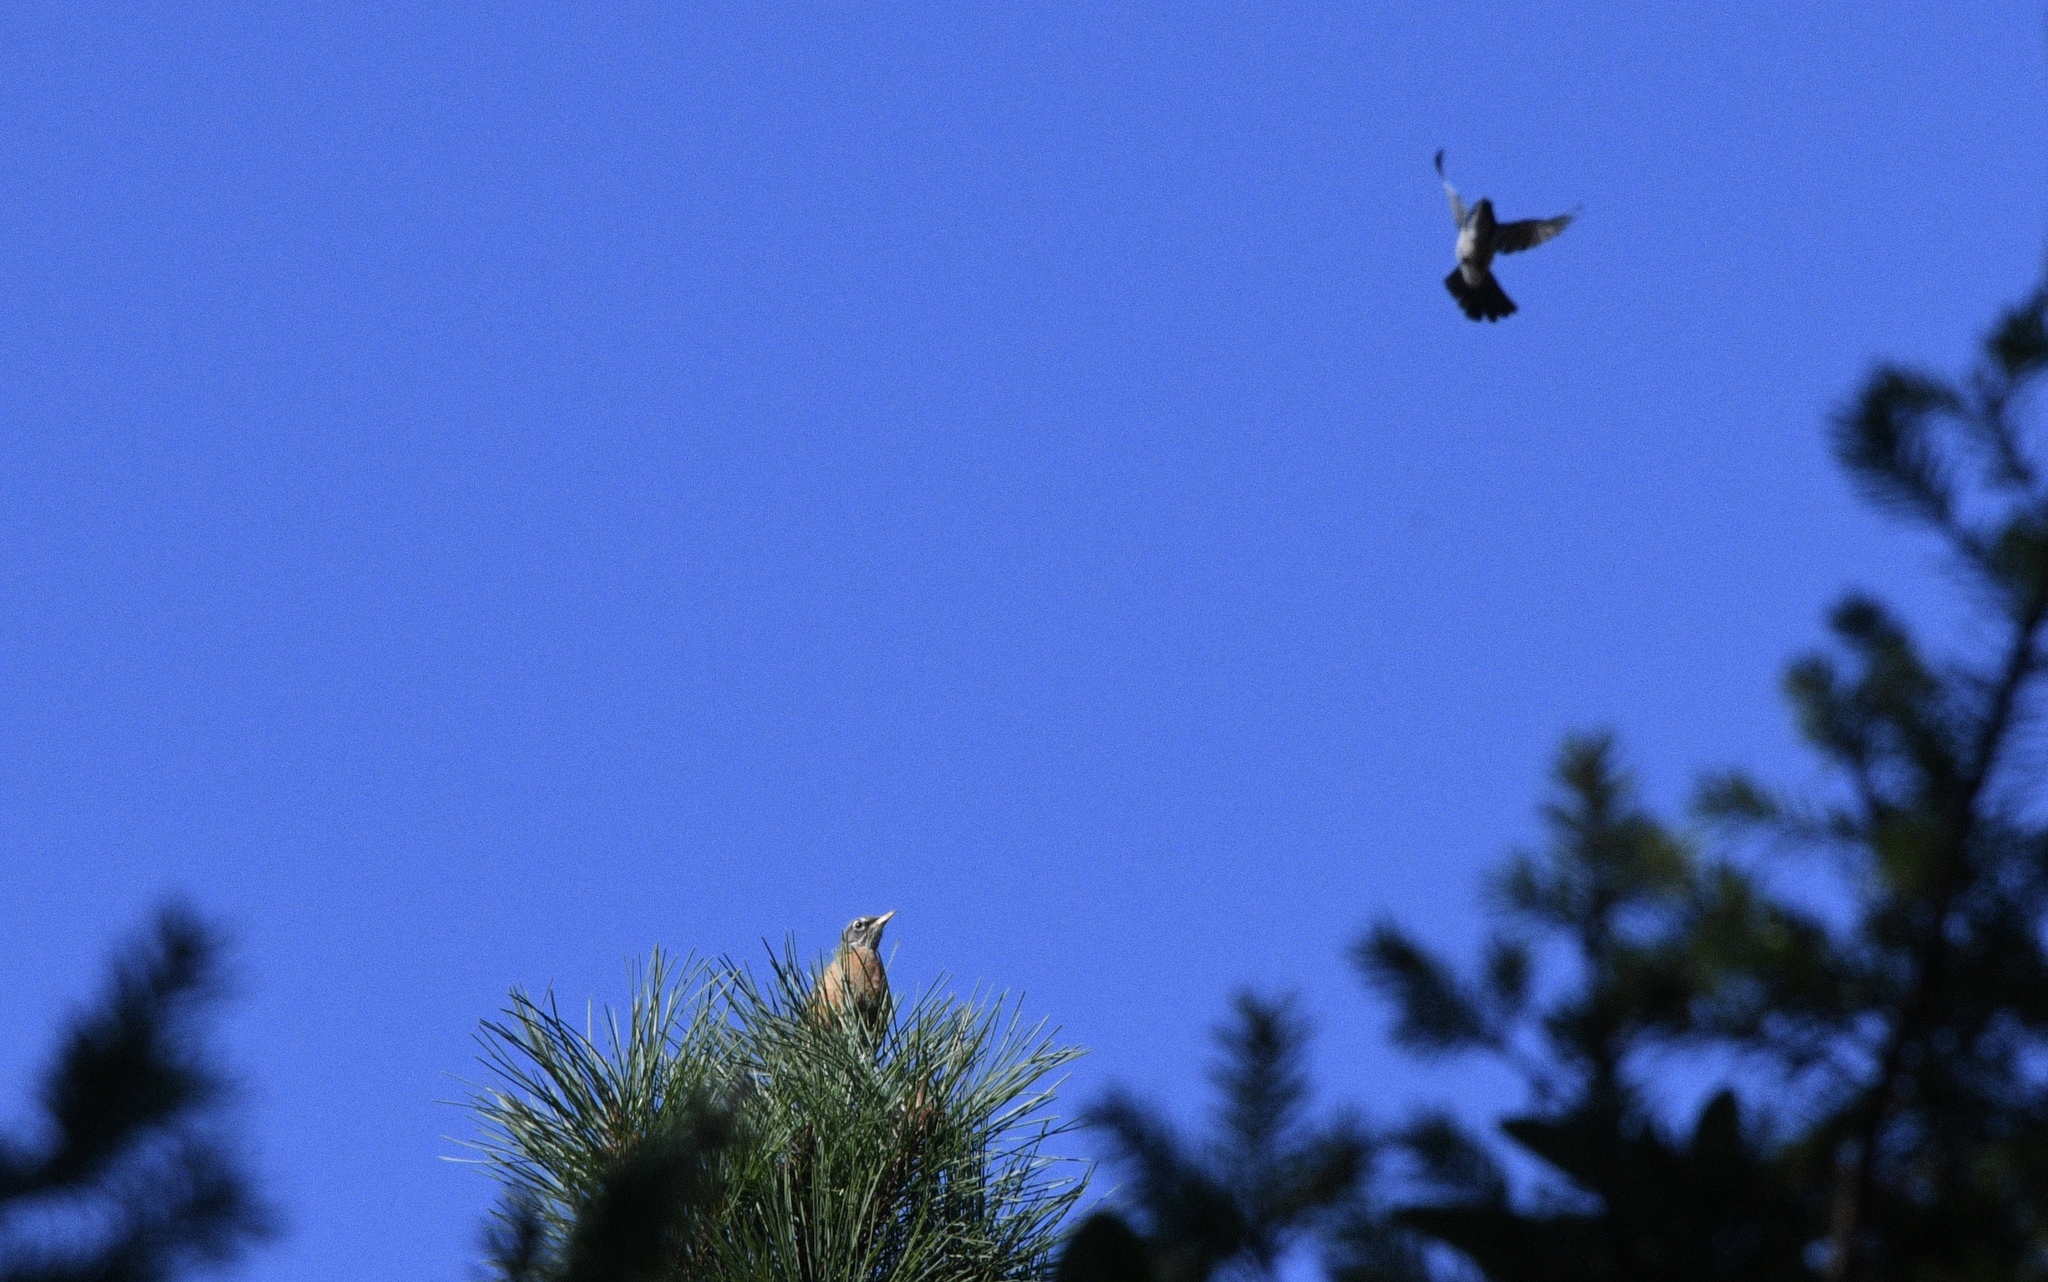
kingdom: Animalia
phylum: Chordata
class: Aves
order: Passeriformes
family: Turdidae
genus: Turdus
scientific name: Turdus migratorius
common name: American robin
